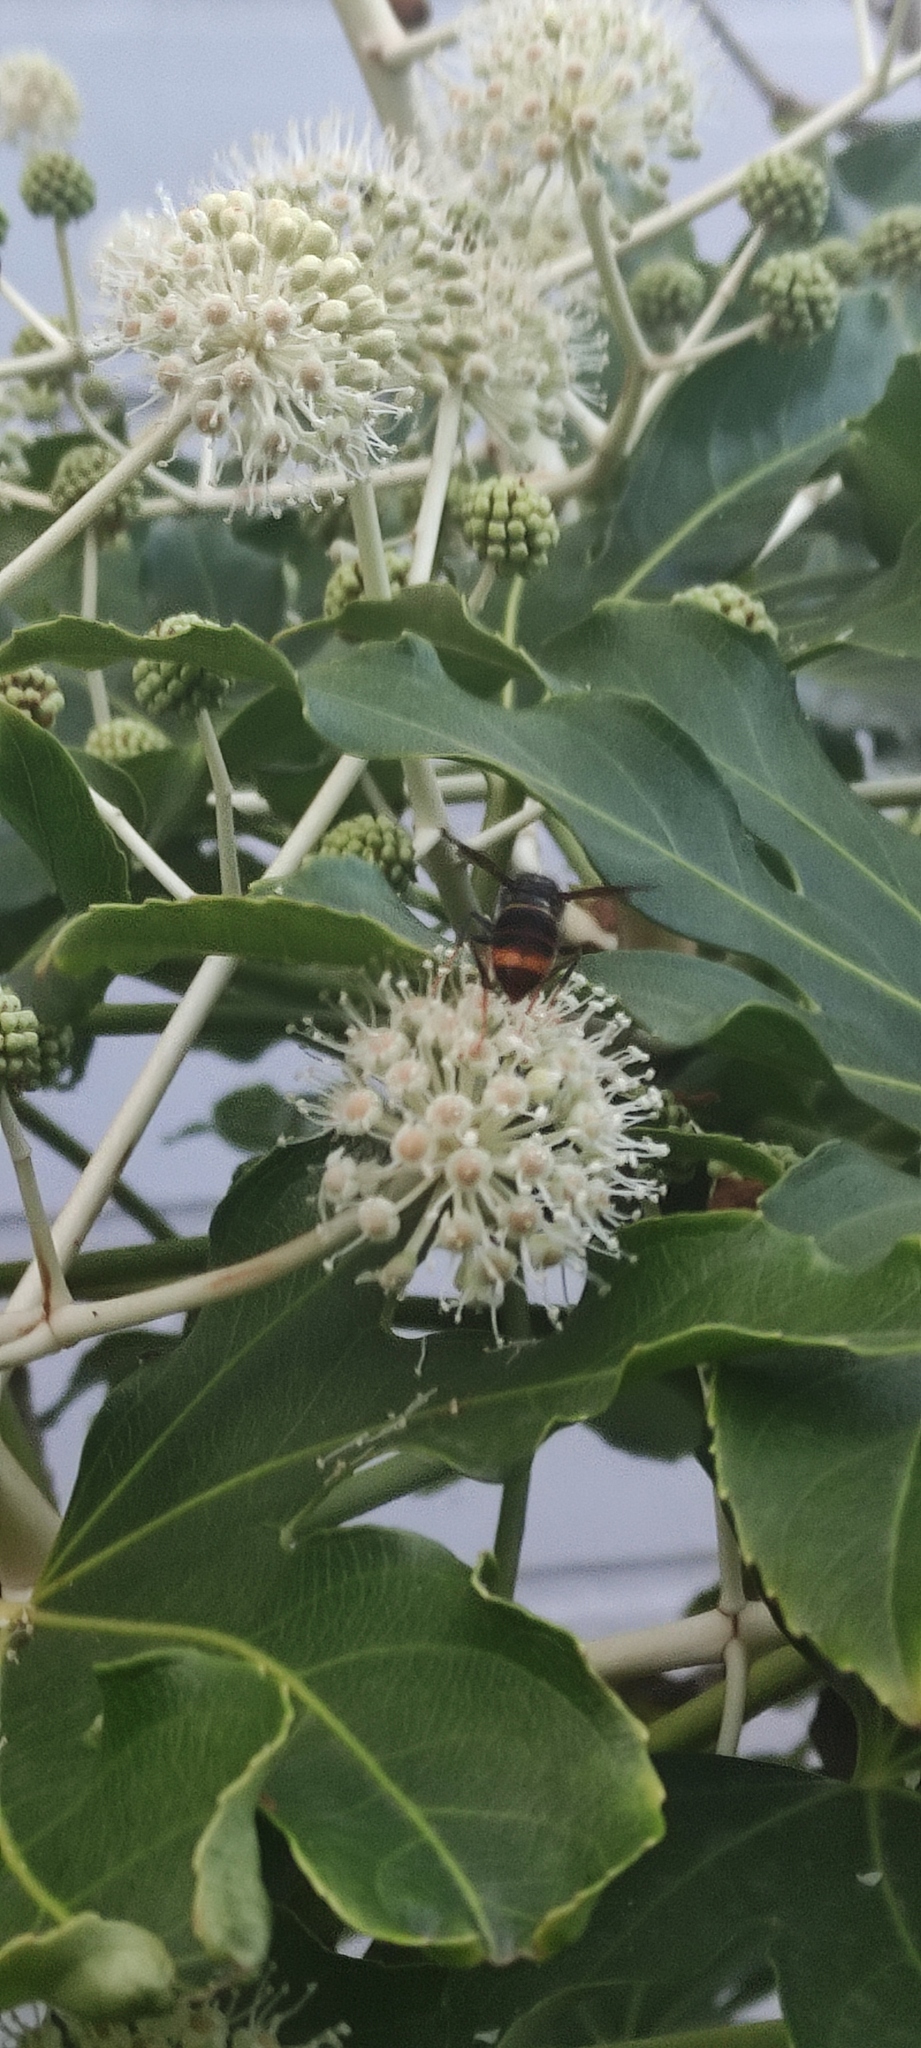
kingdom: Animalia
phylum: Arthropoda
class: Insecta
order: Hymenoptera
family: Vespidae
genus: Vespa
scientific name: Vespa velutina
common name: Asian hornet
